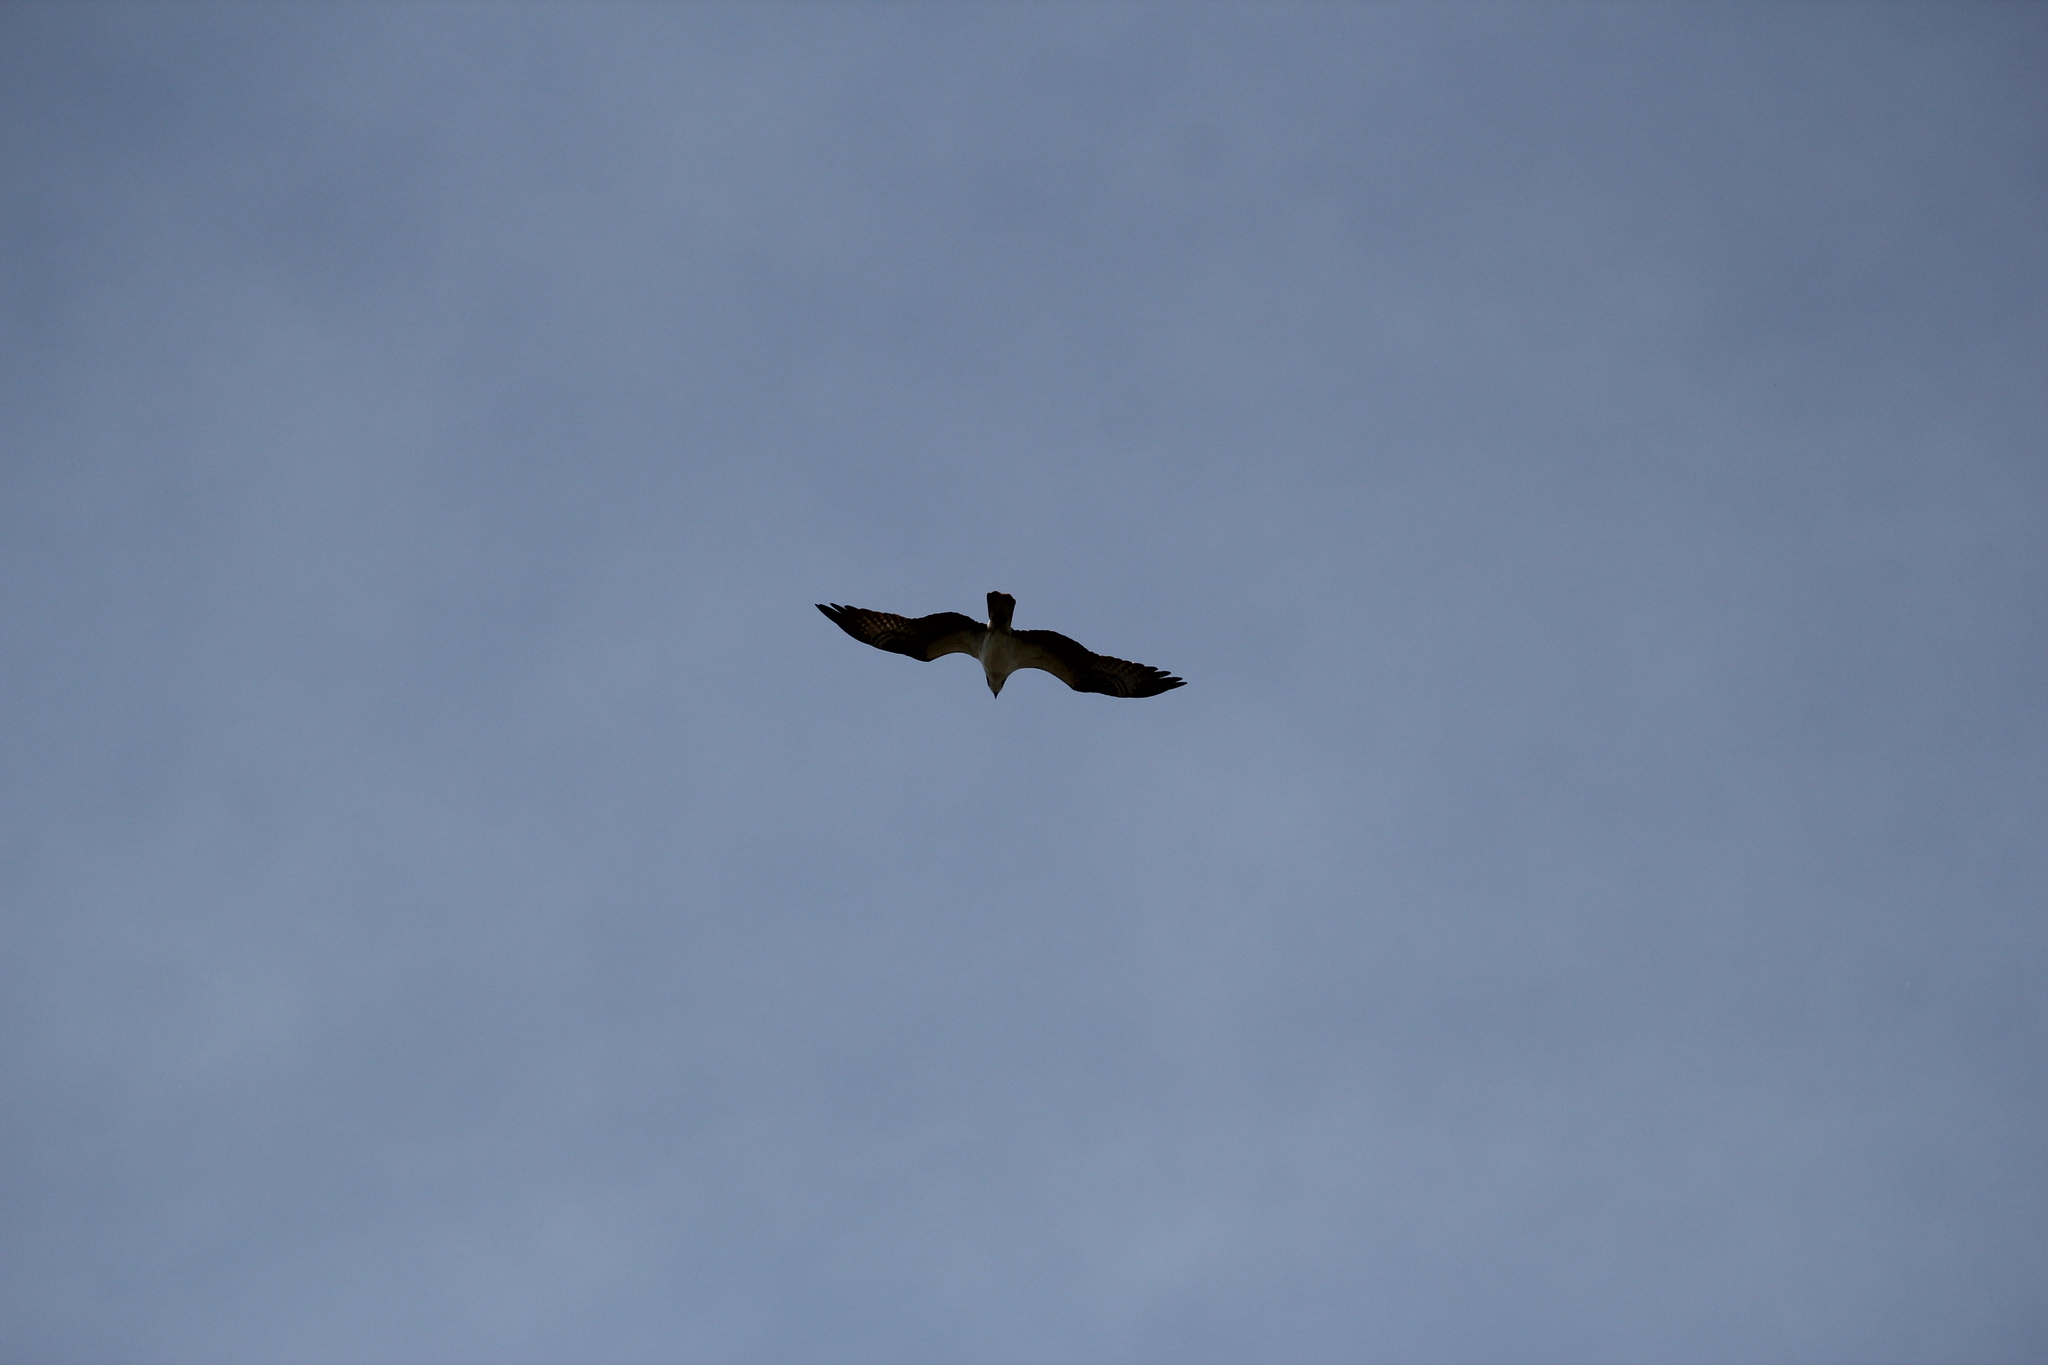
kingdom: Animalia
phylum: Chordata
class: Aves
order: Accipitriformes
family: Pandionidae
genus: Pandion
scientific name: Pandion haliaetus
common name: Osprey
